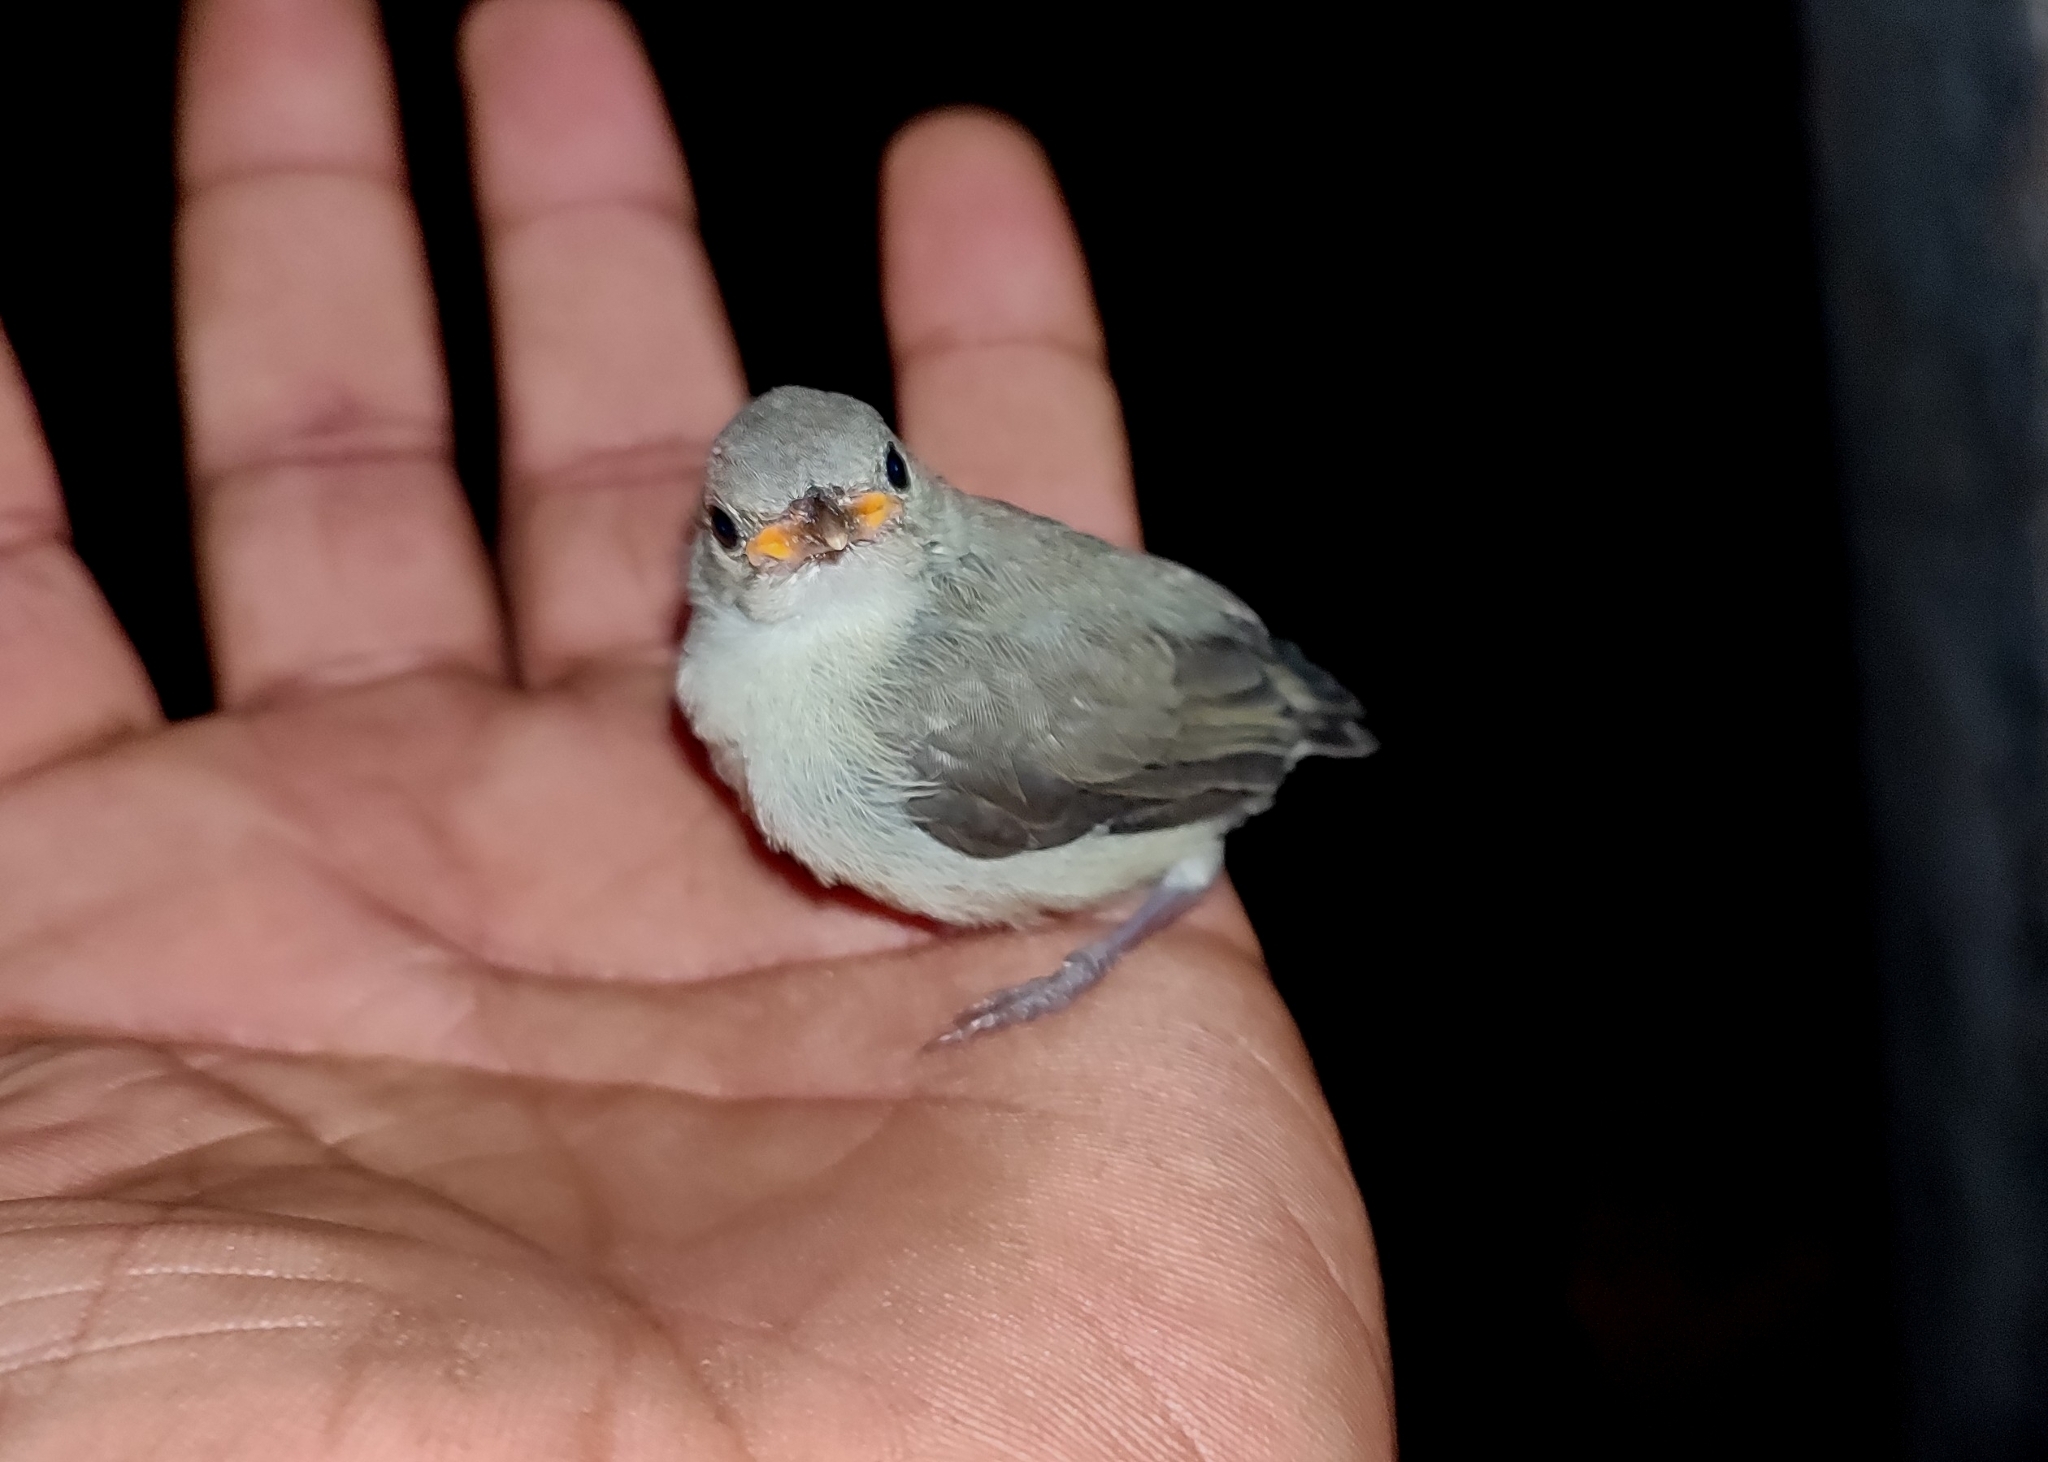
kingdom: Animalia
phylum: Chordata
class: Aves
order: Passeriformes
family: Dicaeidae
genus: Dicaeum
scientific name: Dicaeum erythrorhynchos
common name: Pale-billed flowerpecker
